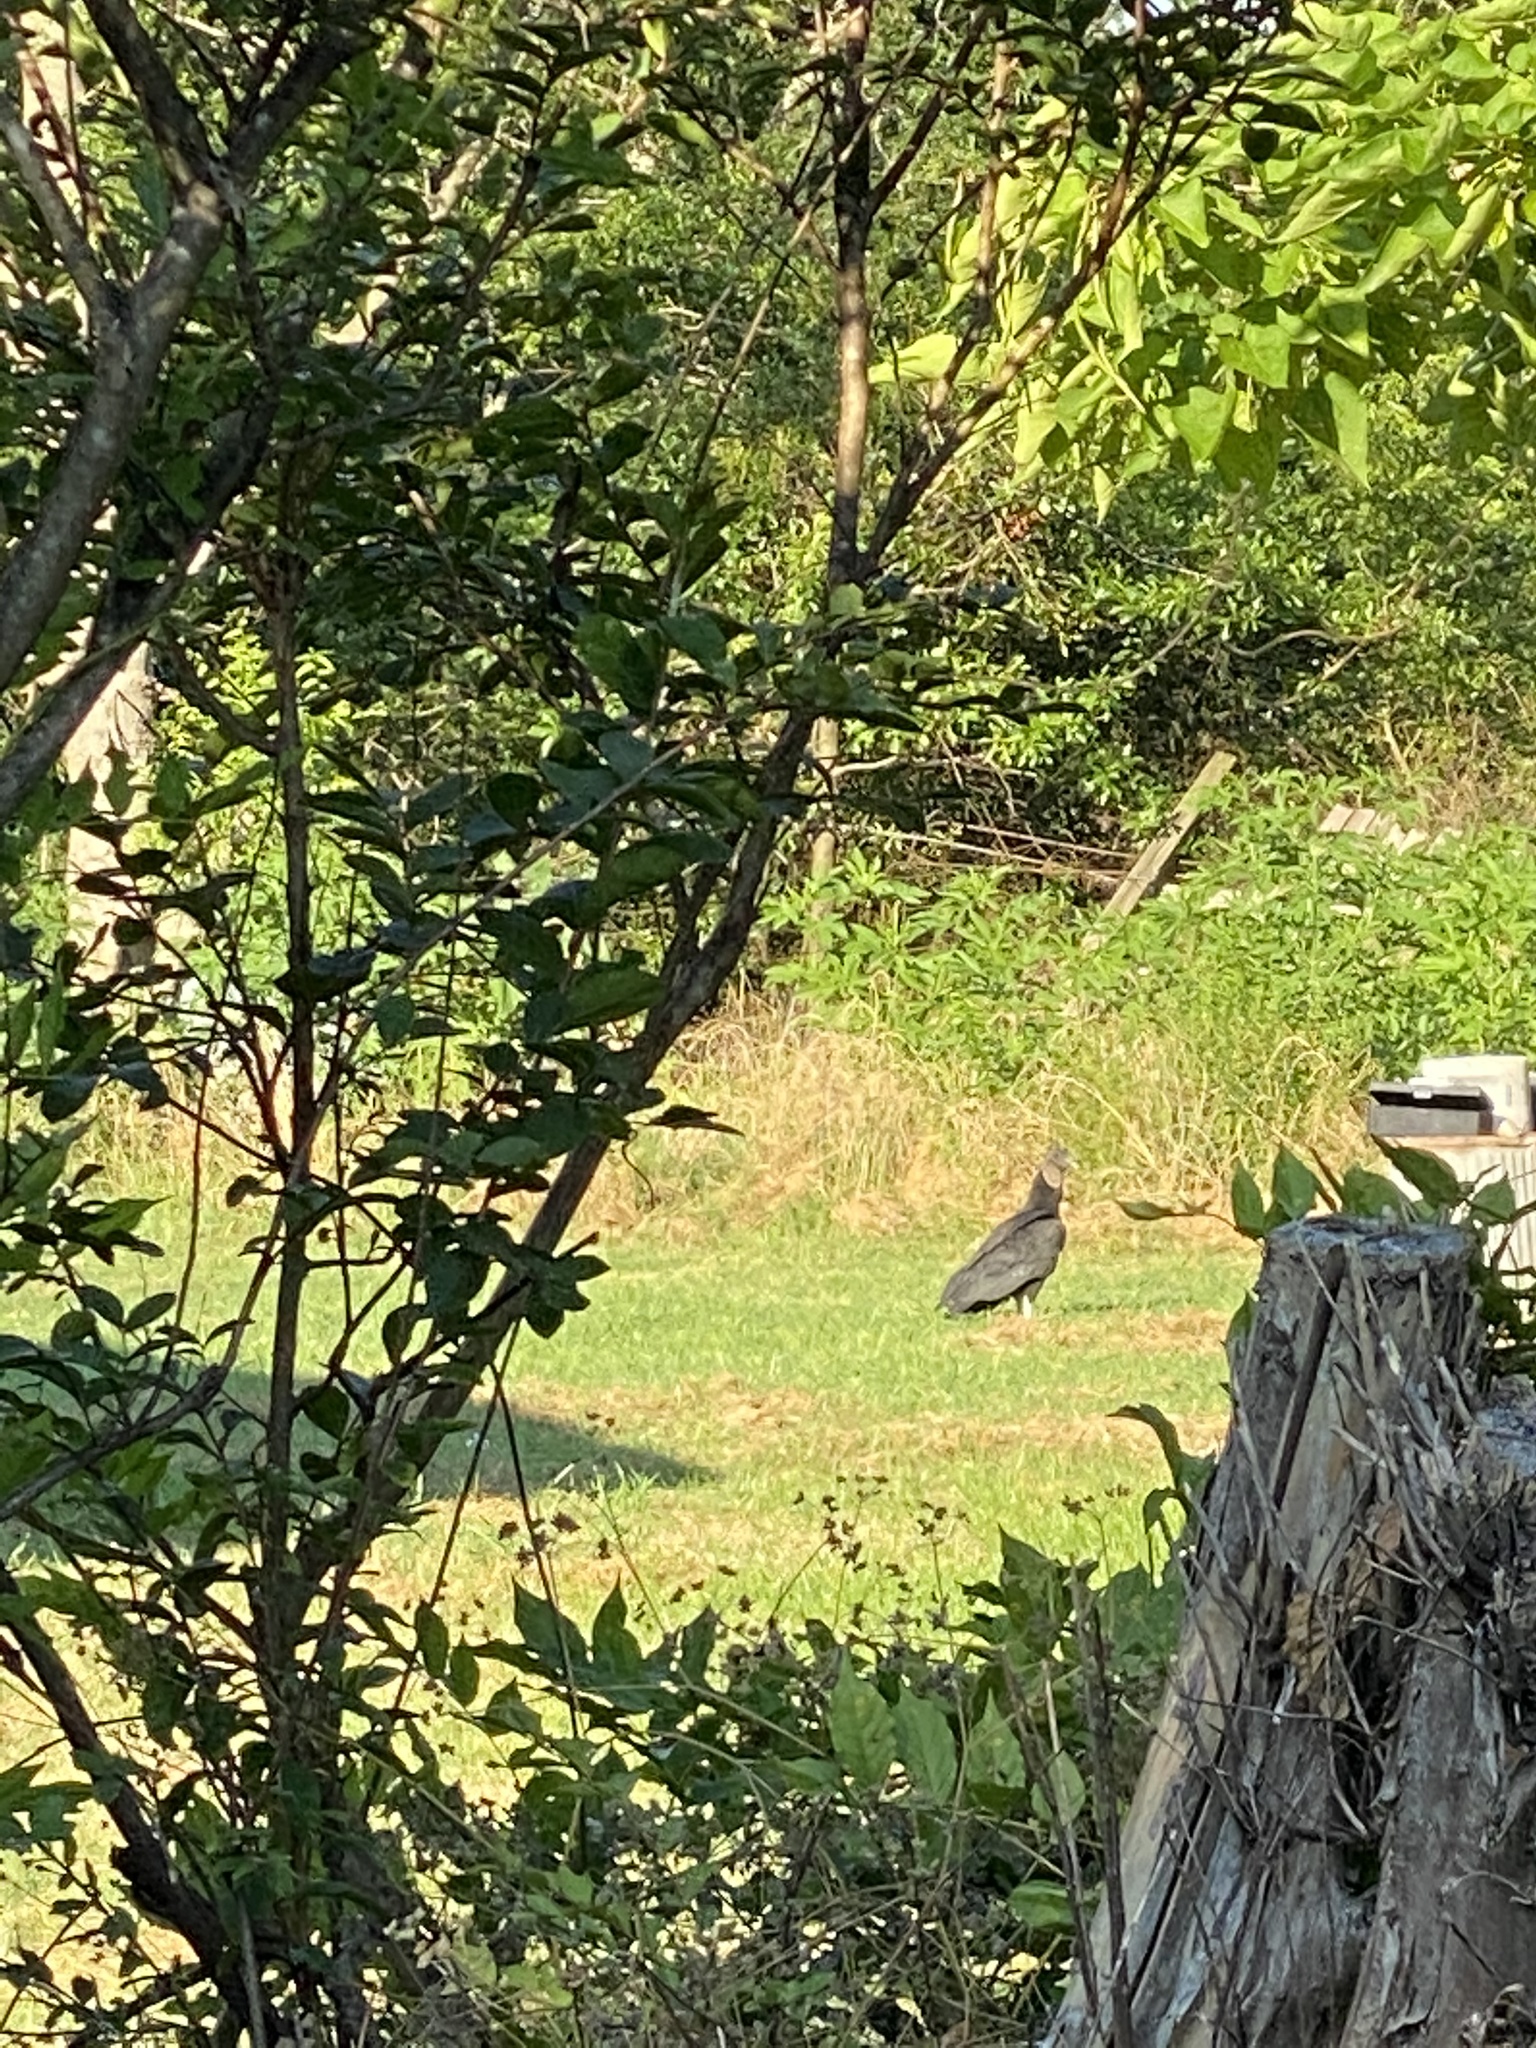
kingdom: Animalia
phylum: Chordata
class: Aves
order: Accipitriformes
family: Cathartidae
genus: Coragyps
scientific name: Coragyps atratus
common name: Black vulture
